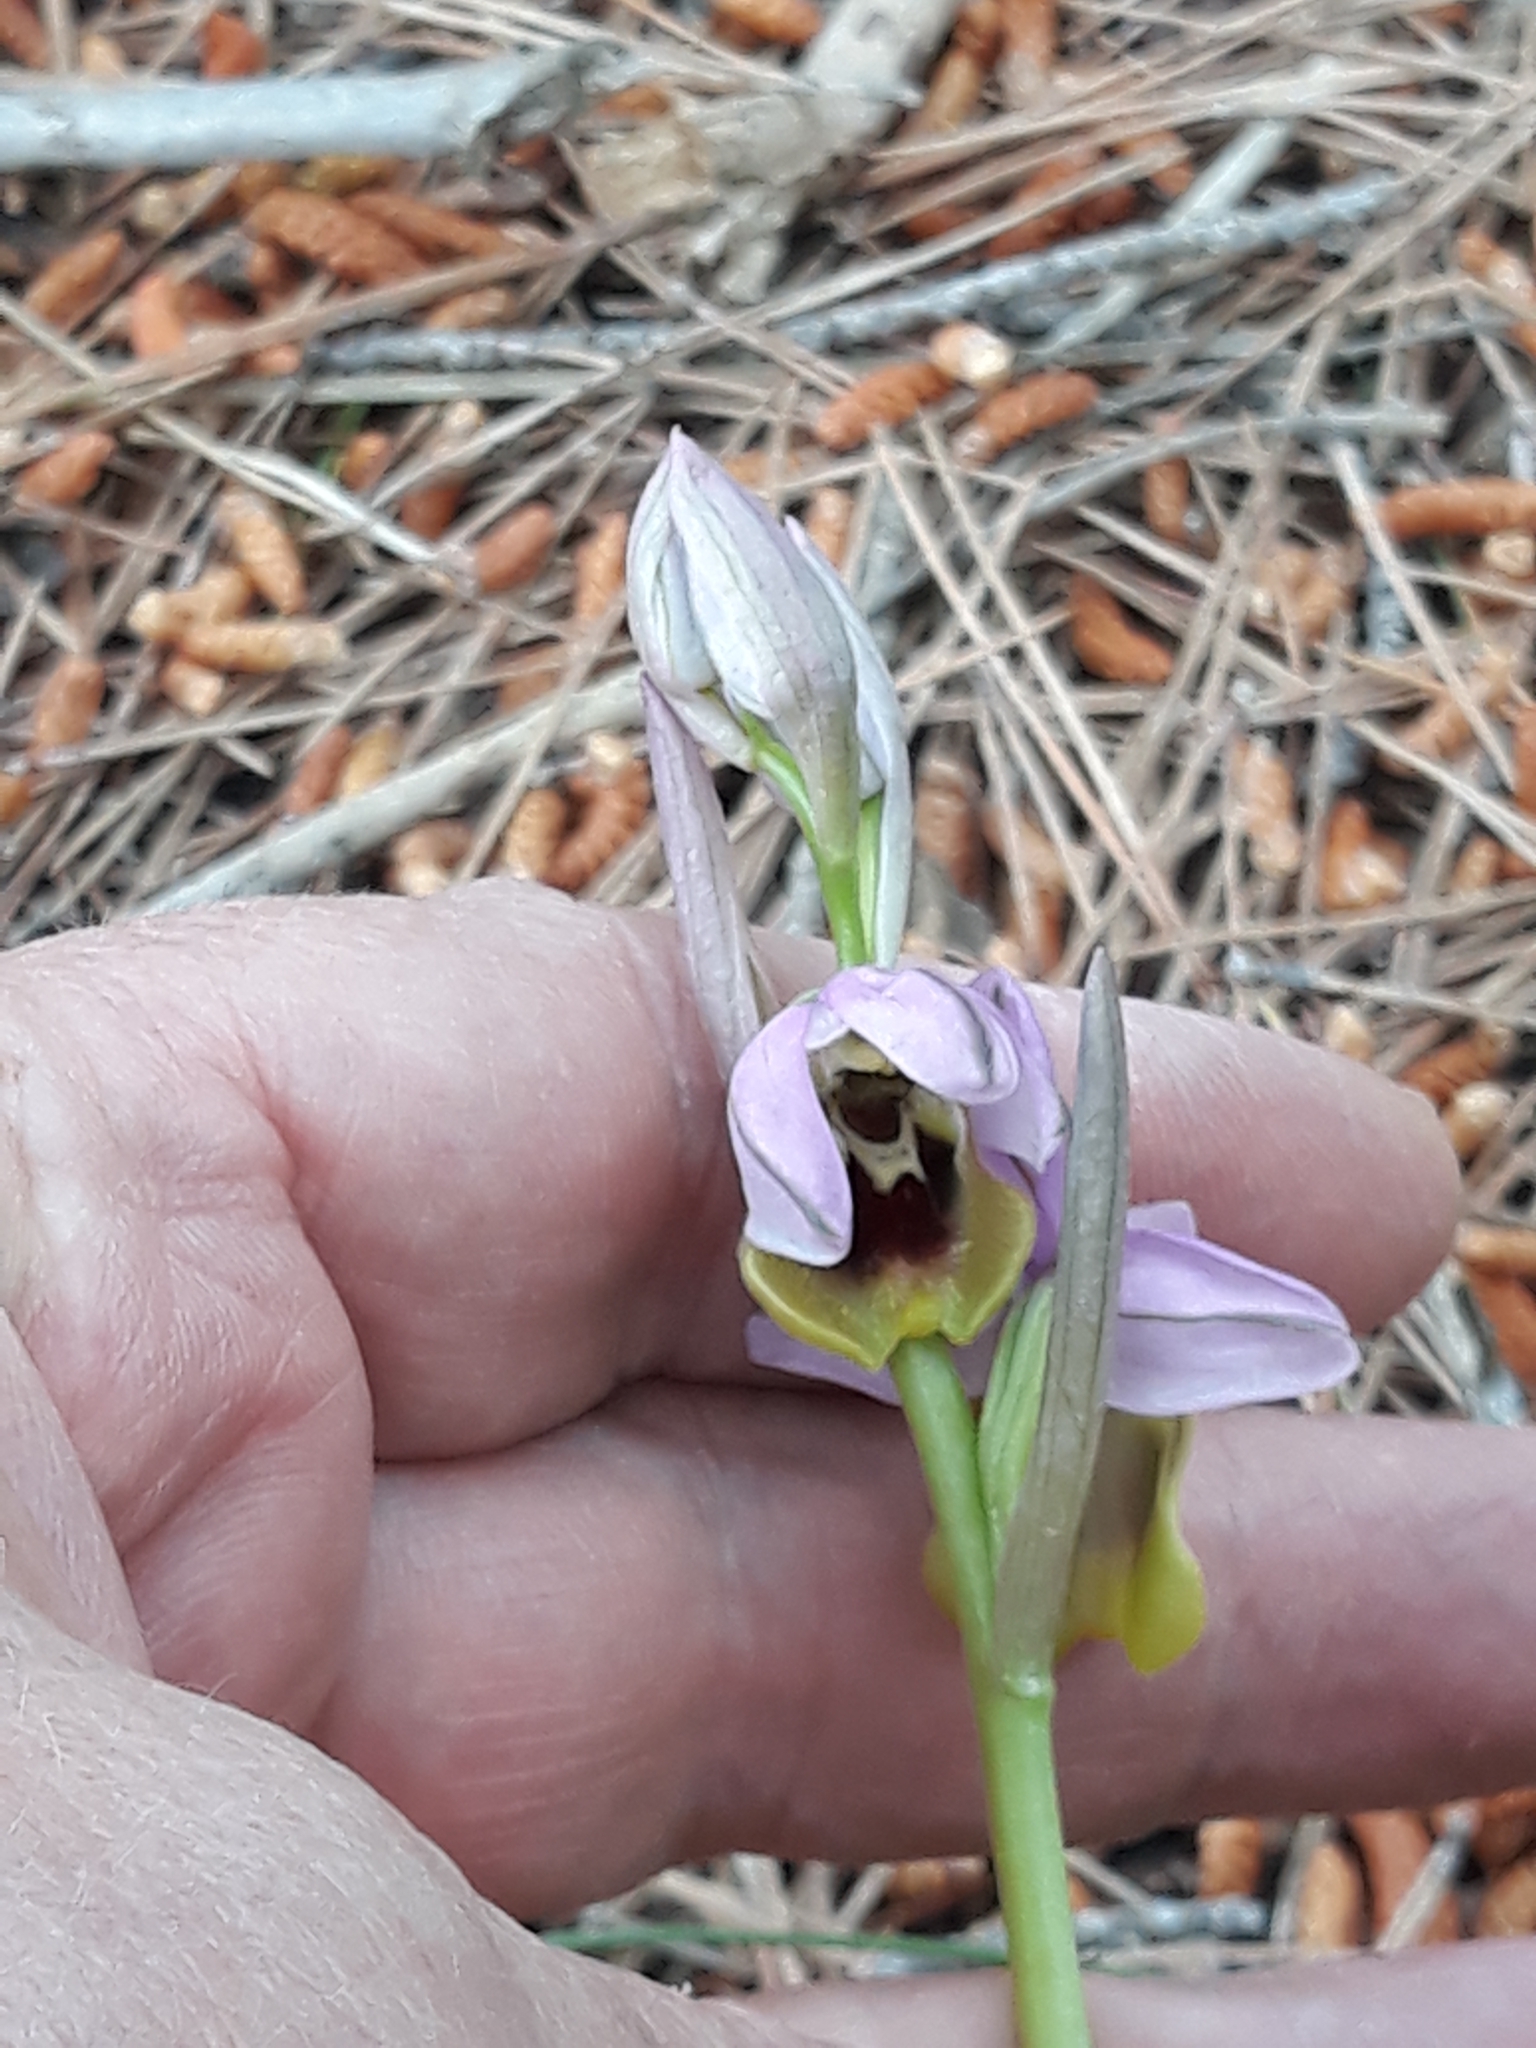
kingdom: Plantae
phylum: Tracheophyta
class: Liliopsida
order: Asparagales
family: Orchidaceae
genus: Ophrys
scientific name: Ophrys tenthredinifera
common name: Sawfly orchid
